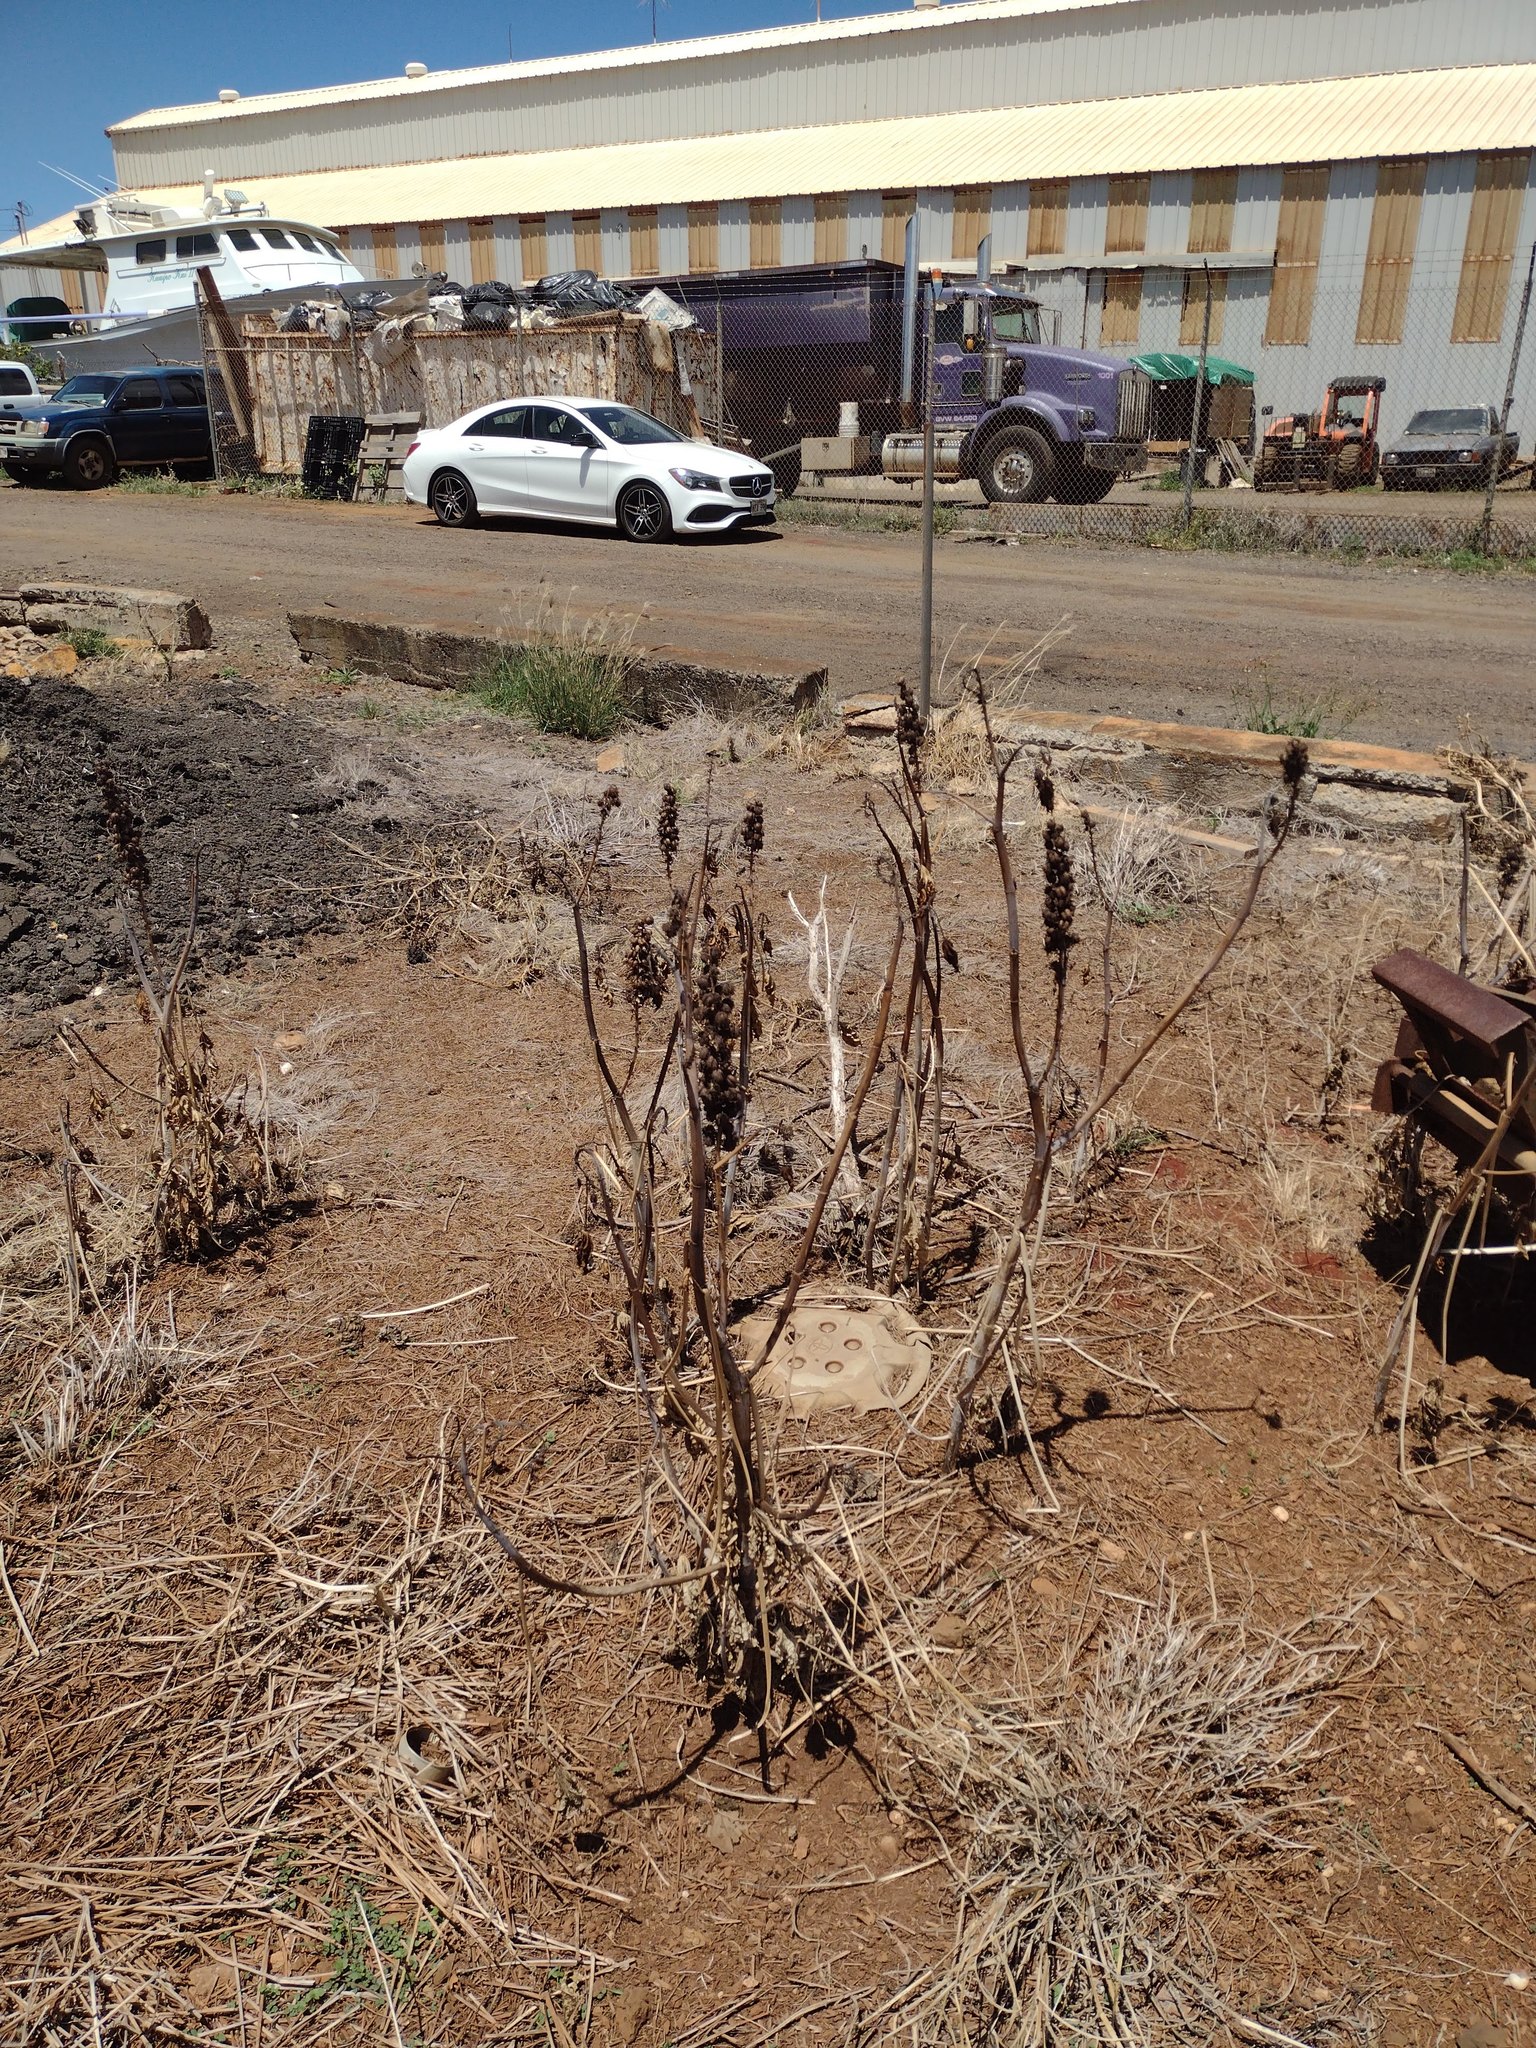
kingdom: Plantae
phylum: Tracheophyta
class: Magnoliopsida
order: Malpighiales
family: Euphorbiaceae
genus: Ricinus
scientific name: Ricinus communis
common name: Castor-oil-plant
